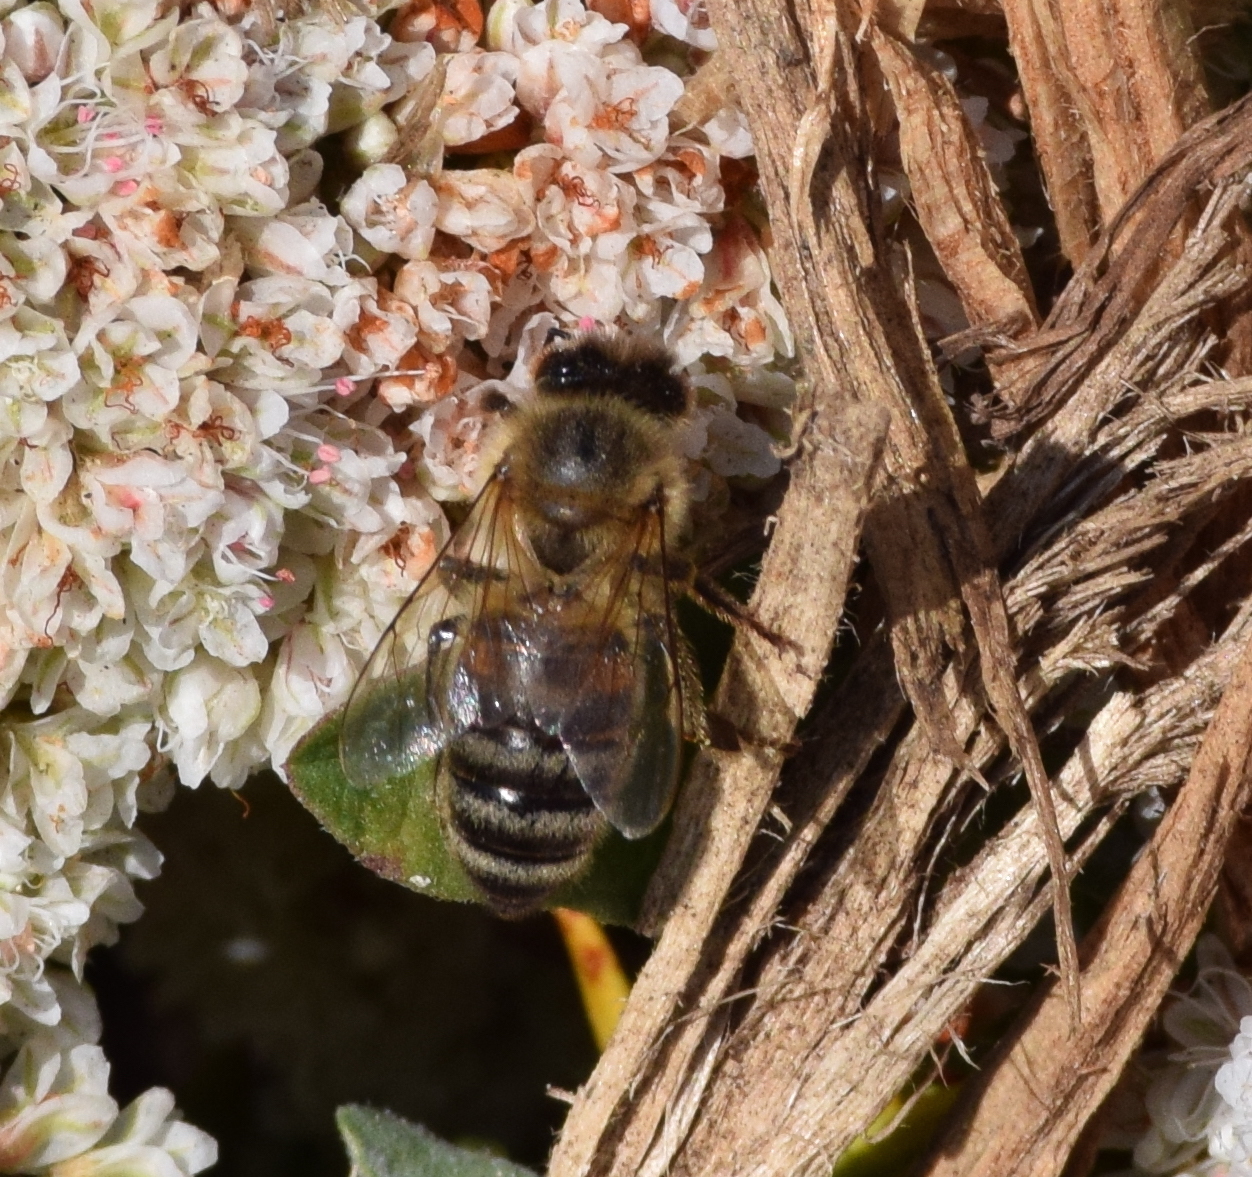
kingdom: Animalia
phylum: Arthropoda
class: Insecta
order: Hymenoptera
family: Apidae
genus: Apis
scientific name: Apis mellifera
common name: Honey bee
